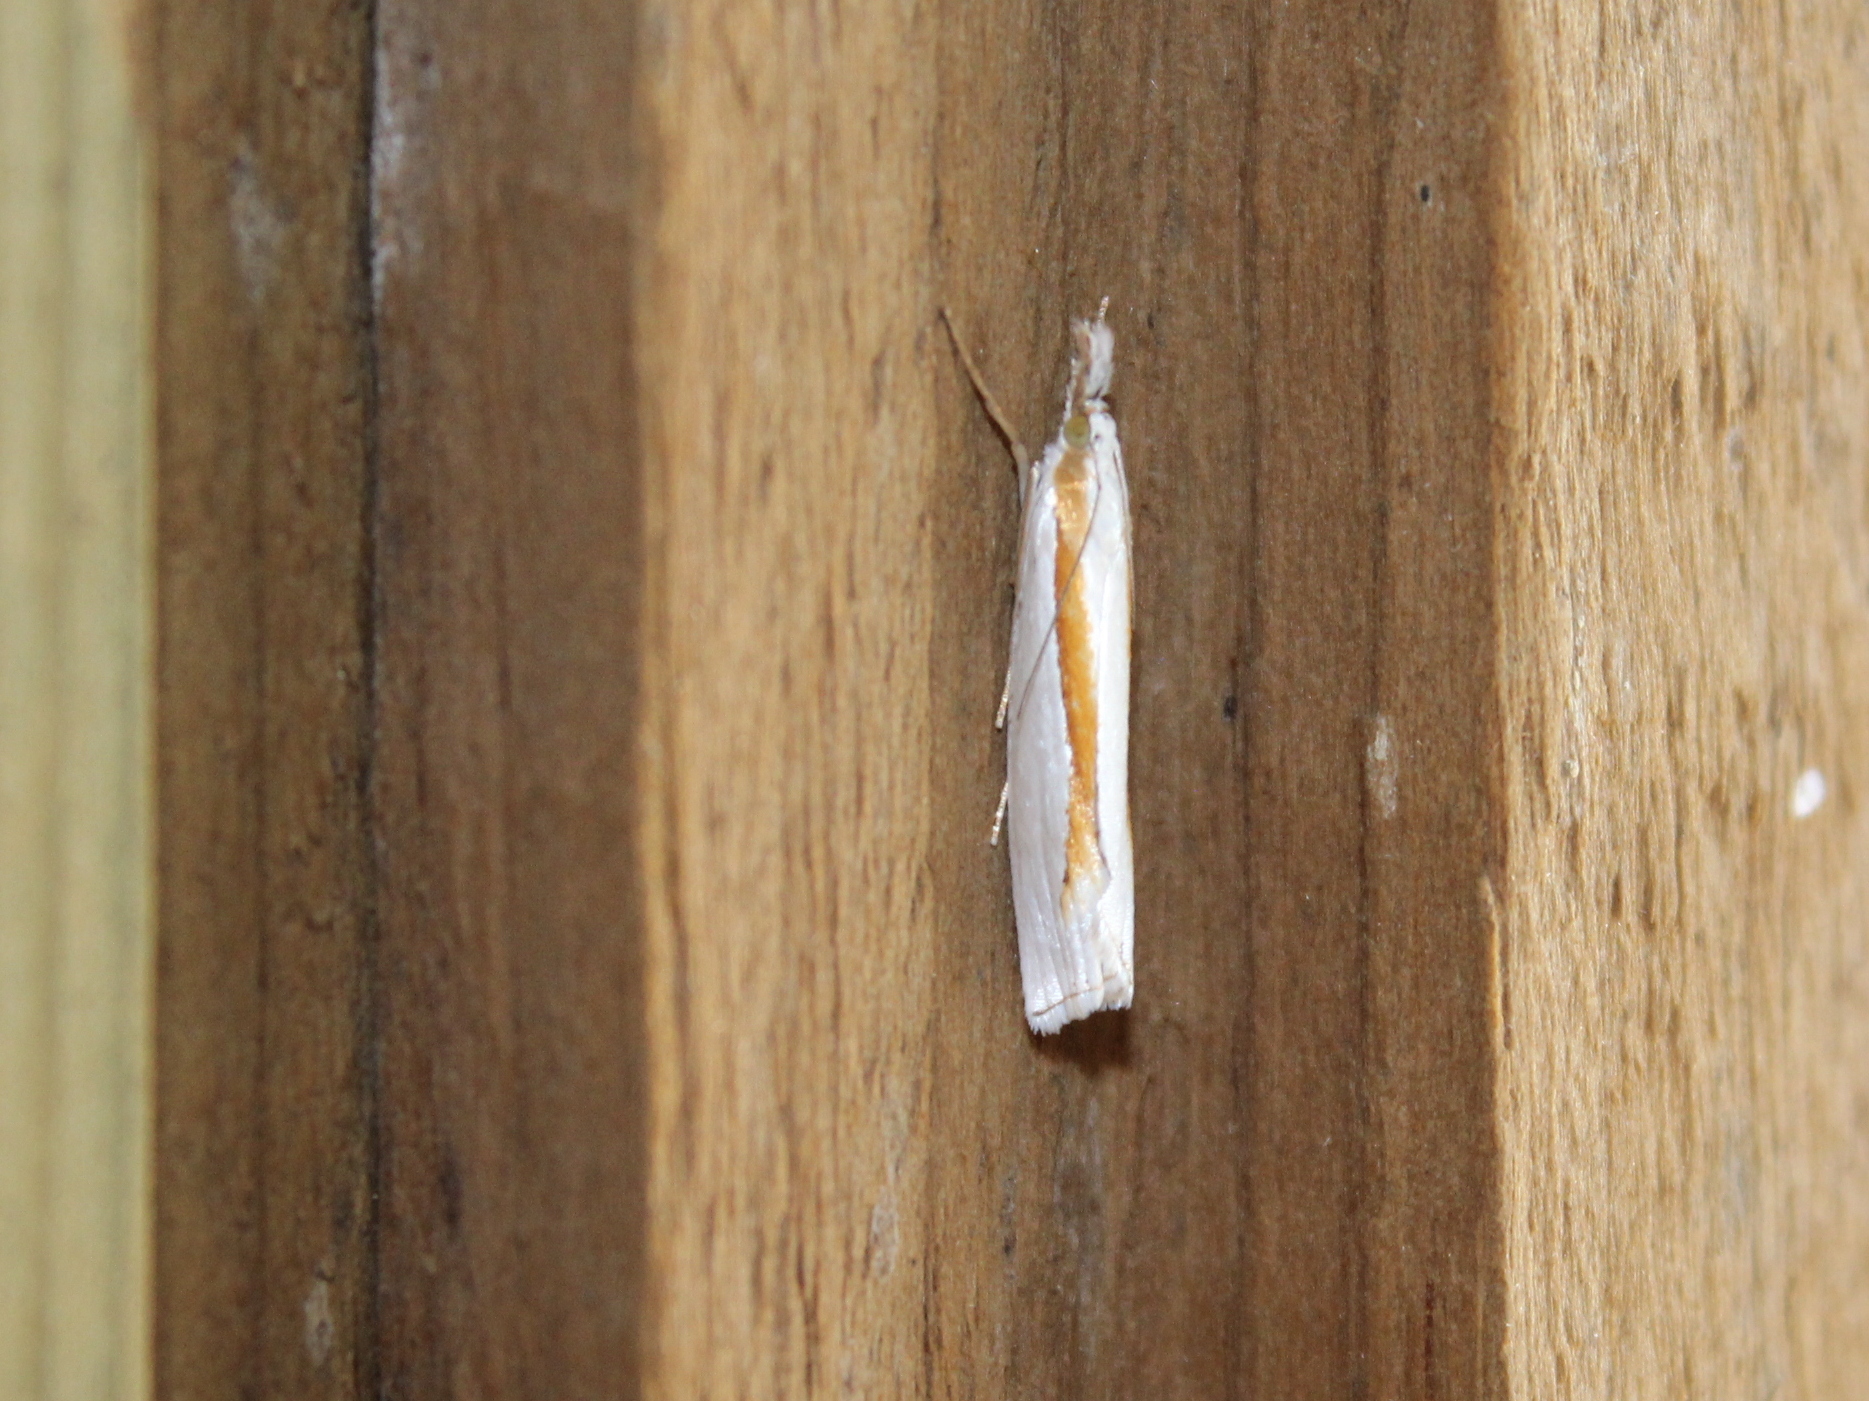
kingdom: Animalia
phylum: Arthropoda
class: Insecta
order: Lepidoptera
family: Crambidae
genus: Crambus
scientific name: Crambus girardellus
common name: Girard's grass-veneer
